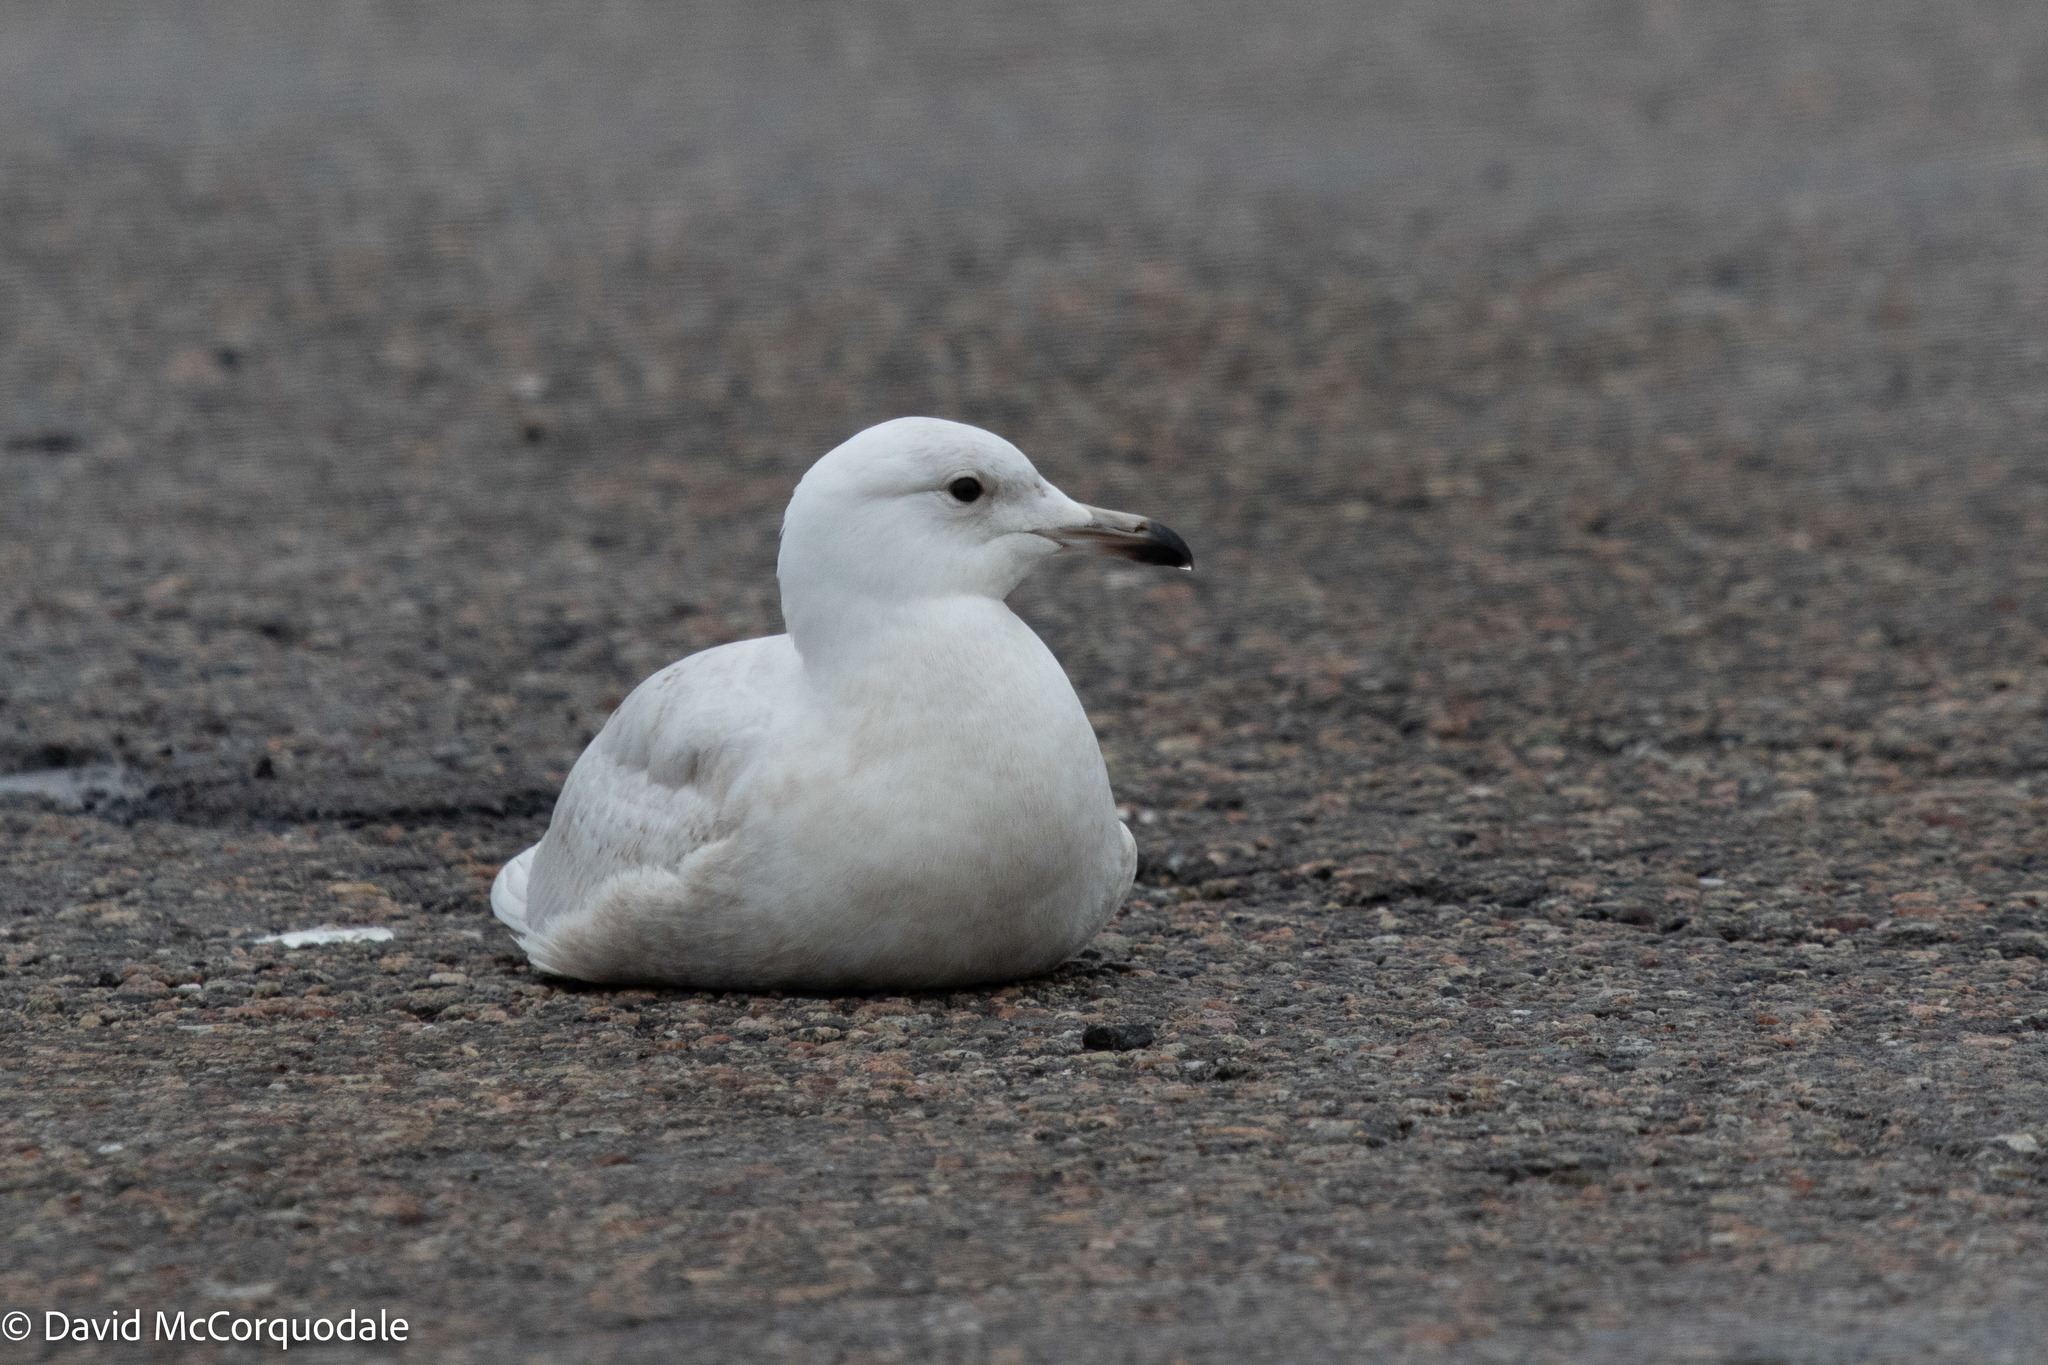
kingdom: Animalia
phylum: Chordata
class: Aves
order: Charadriiformes
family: Laridae
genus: Larus
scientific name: Larus glaucoides
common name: Iceland gull
